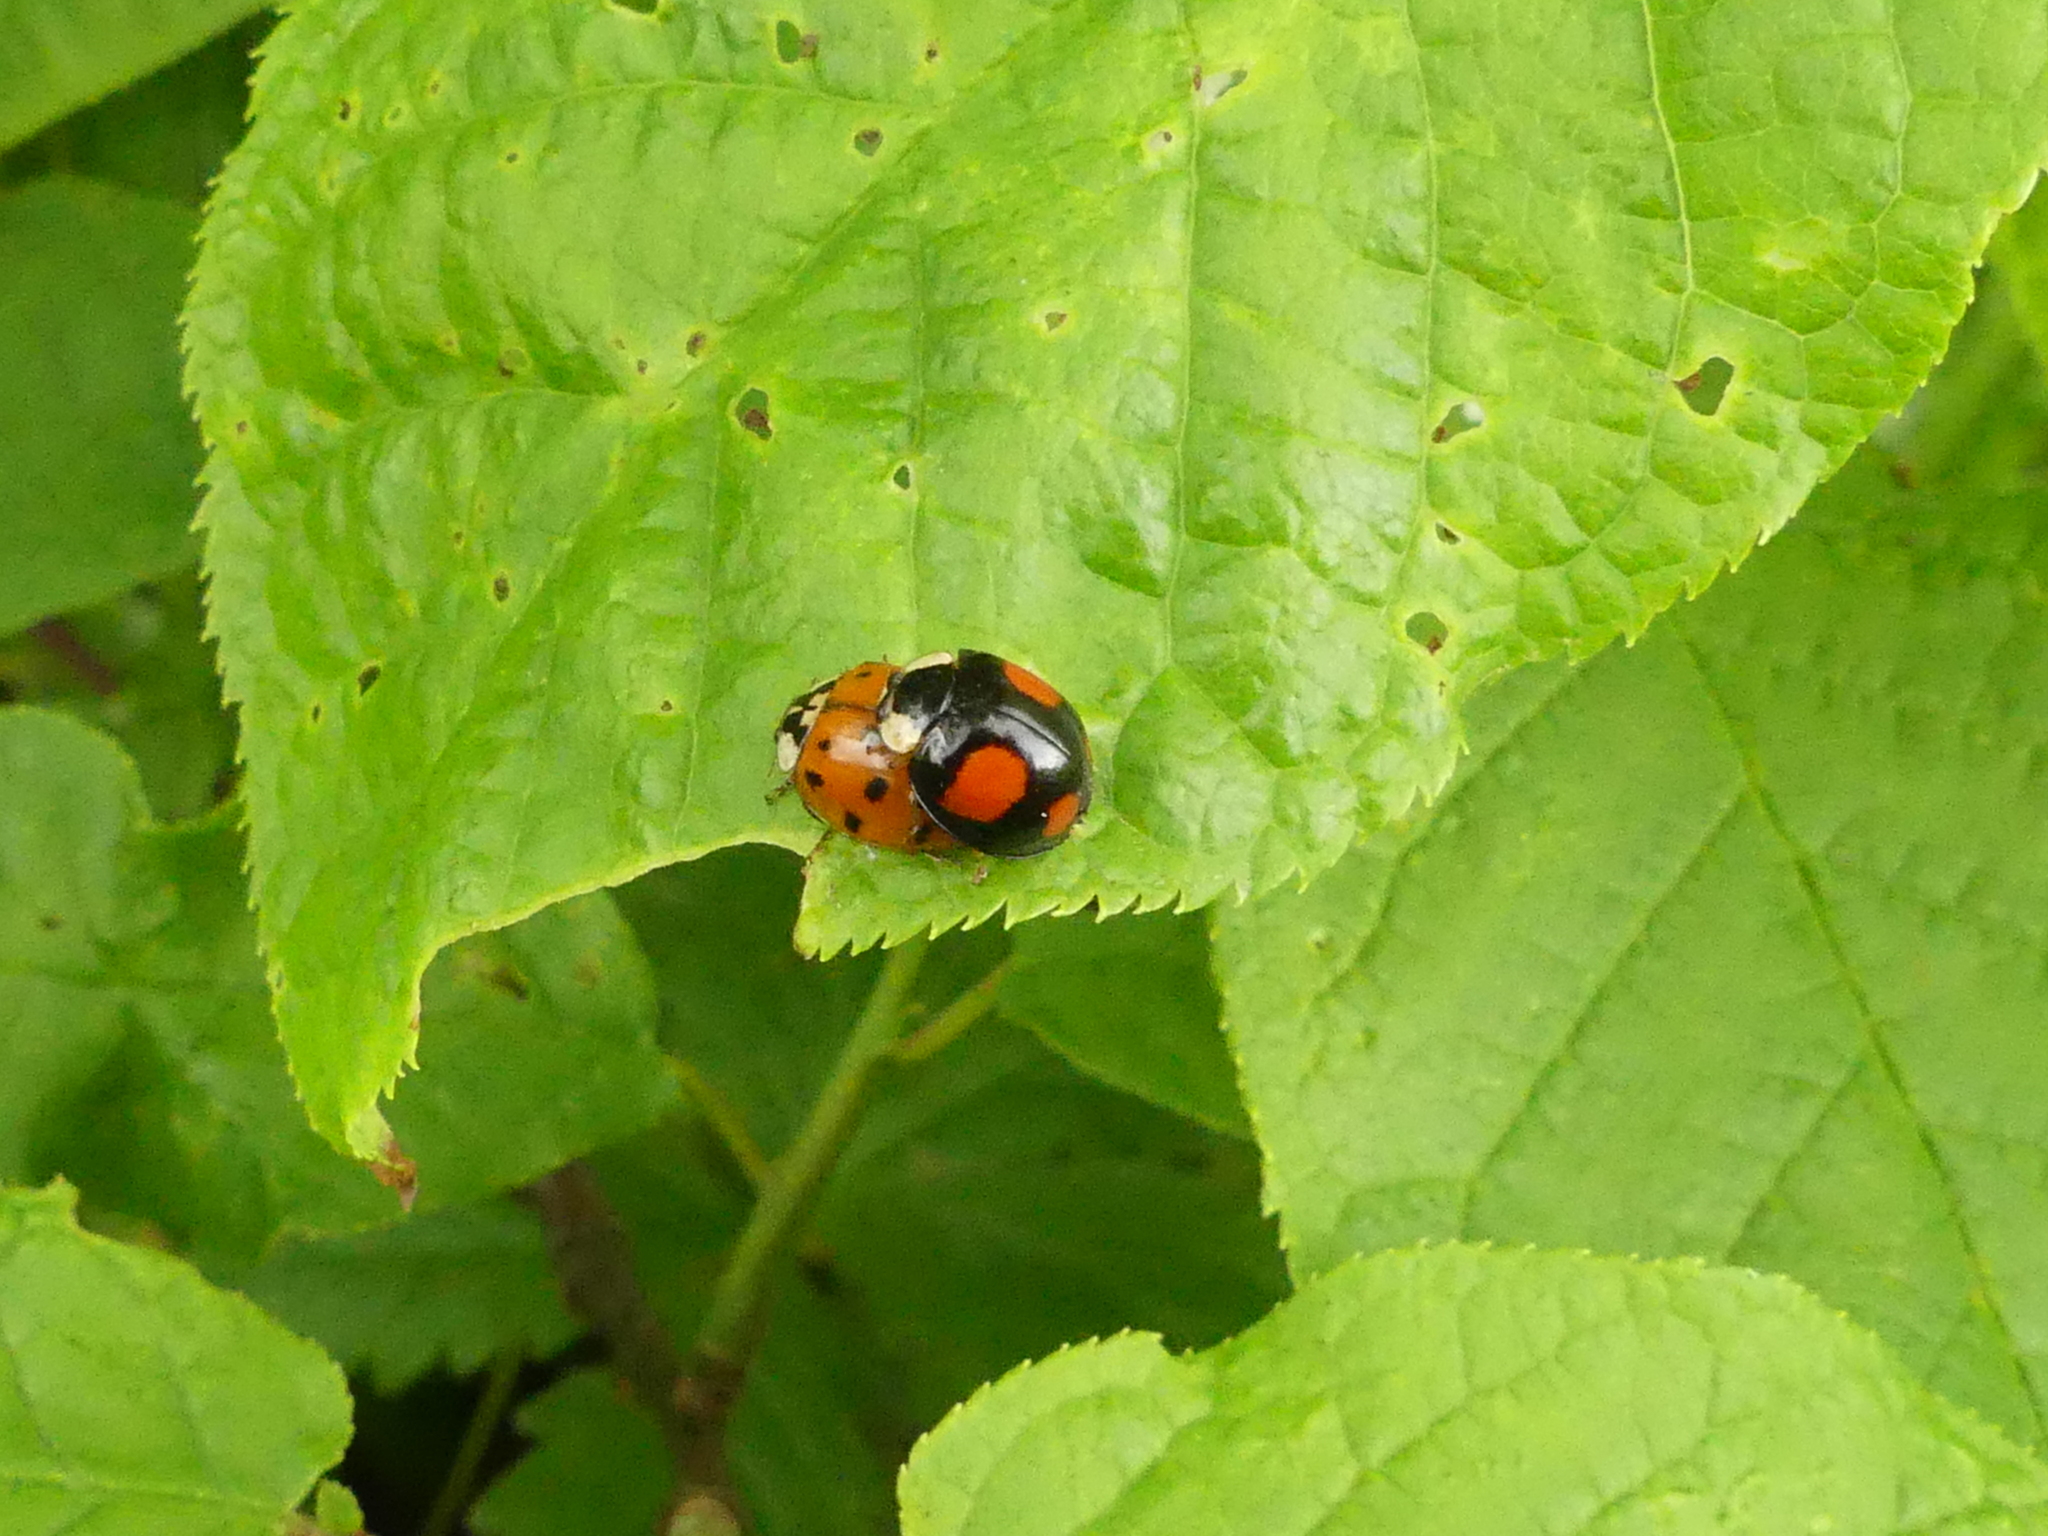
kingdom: Animalia
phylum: Arthropoda
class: Insecta
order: Coleoptera
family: Coccinellidae
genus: Harmonia
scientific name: Harmonia axyridis
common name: Harlequin ladybird
